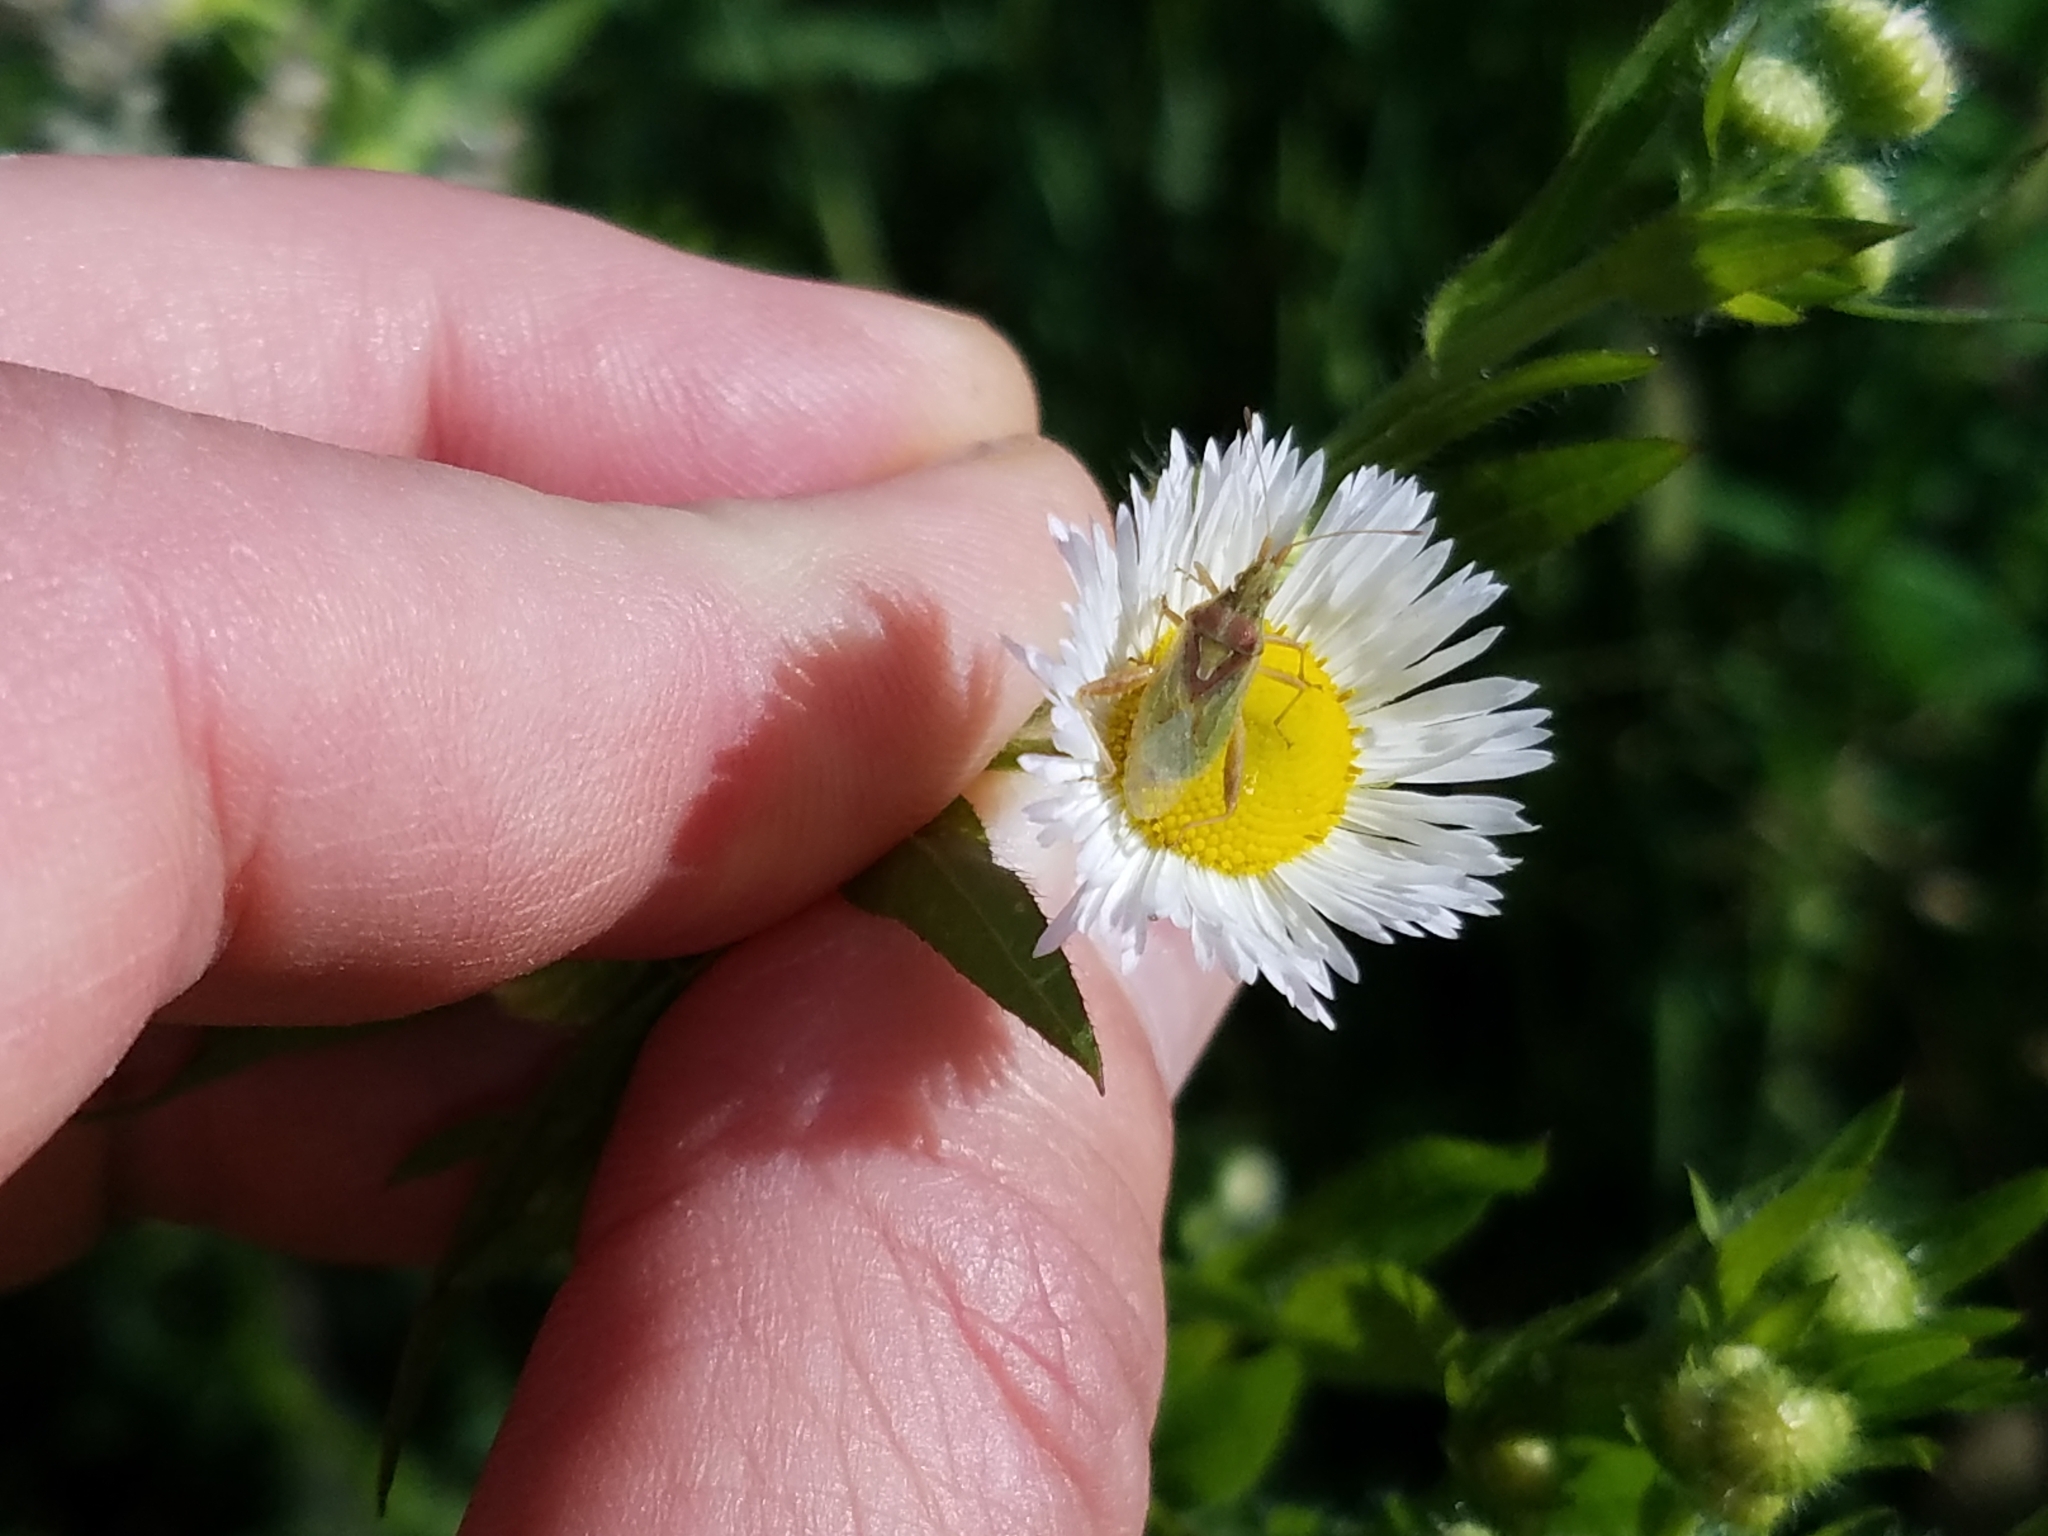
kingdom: Animalia
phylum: Arthropoda
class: Insecta
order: Hemiptera
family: Rhopalidae
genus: Harmostes
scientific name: Harmostes reflexulus
